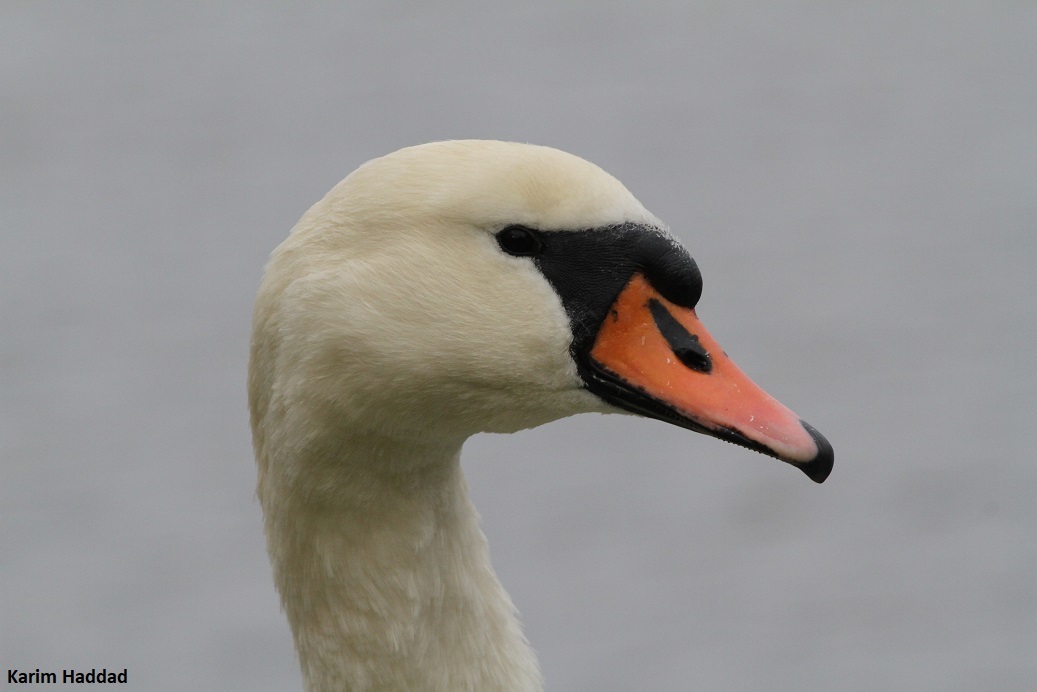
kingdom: Animalia
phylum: Chordata
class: Aves
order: Anseriformes
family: Anatidae
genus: Cygnus
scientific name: Cygnus olor
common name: Mute swan
